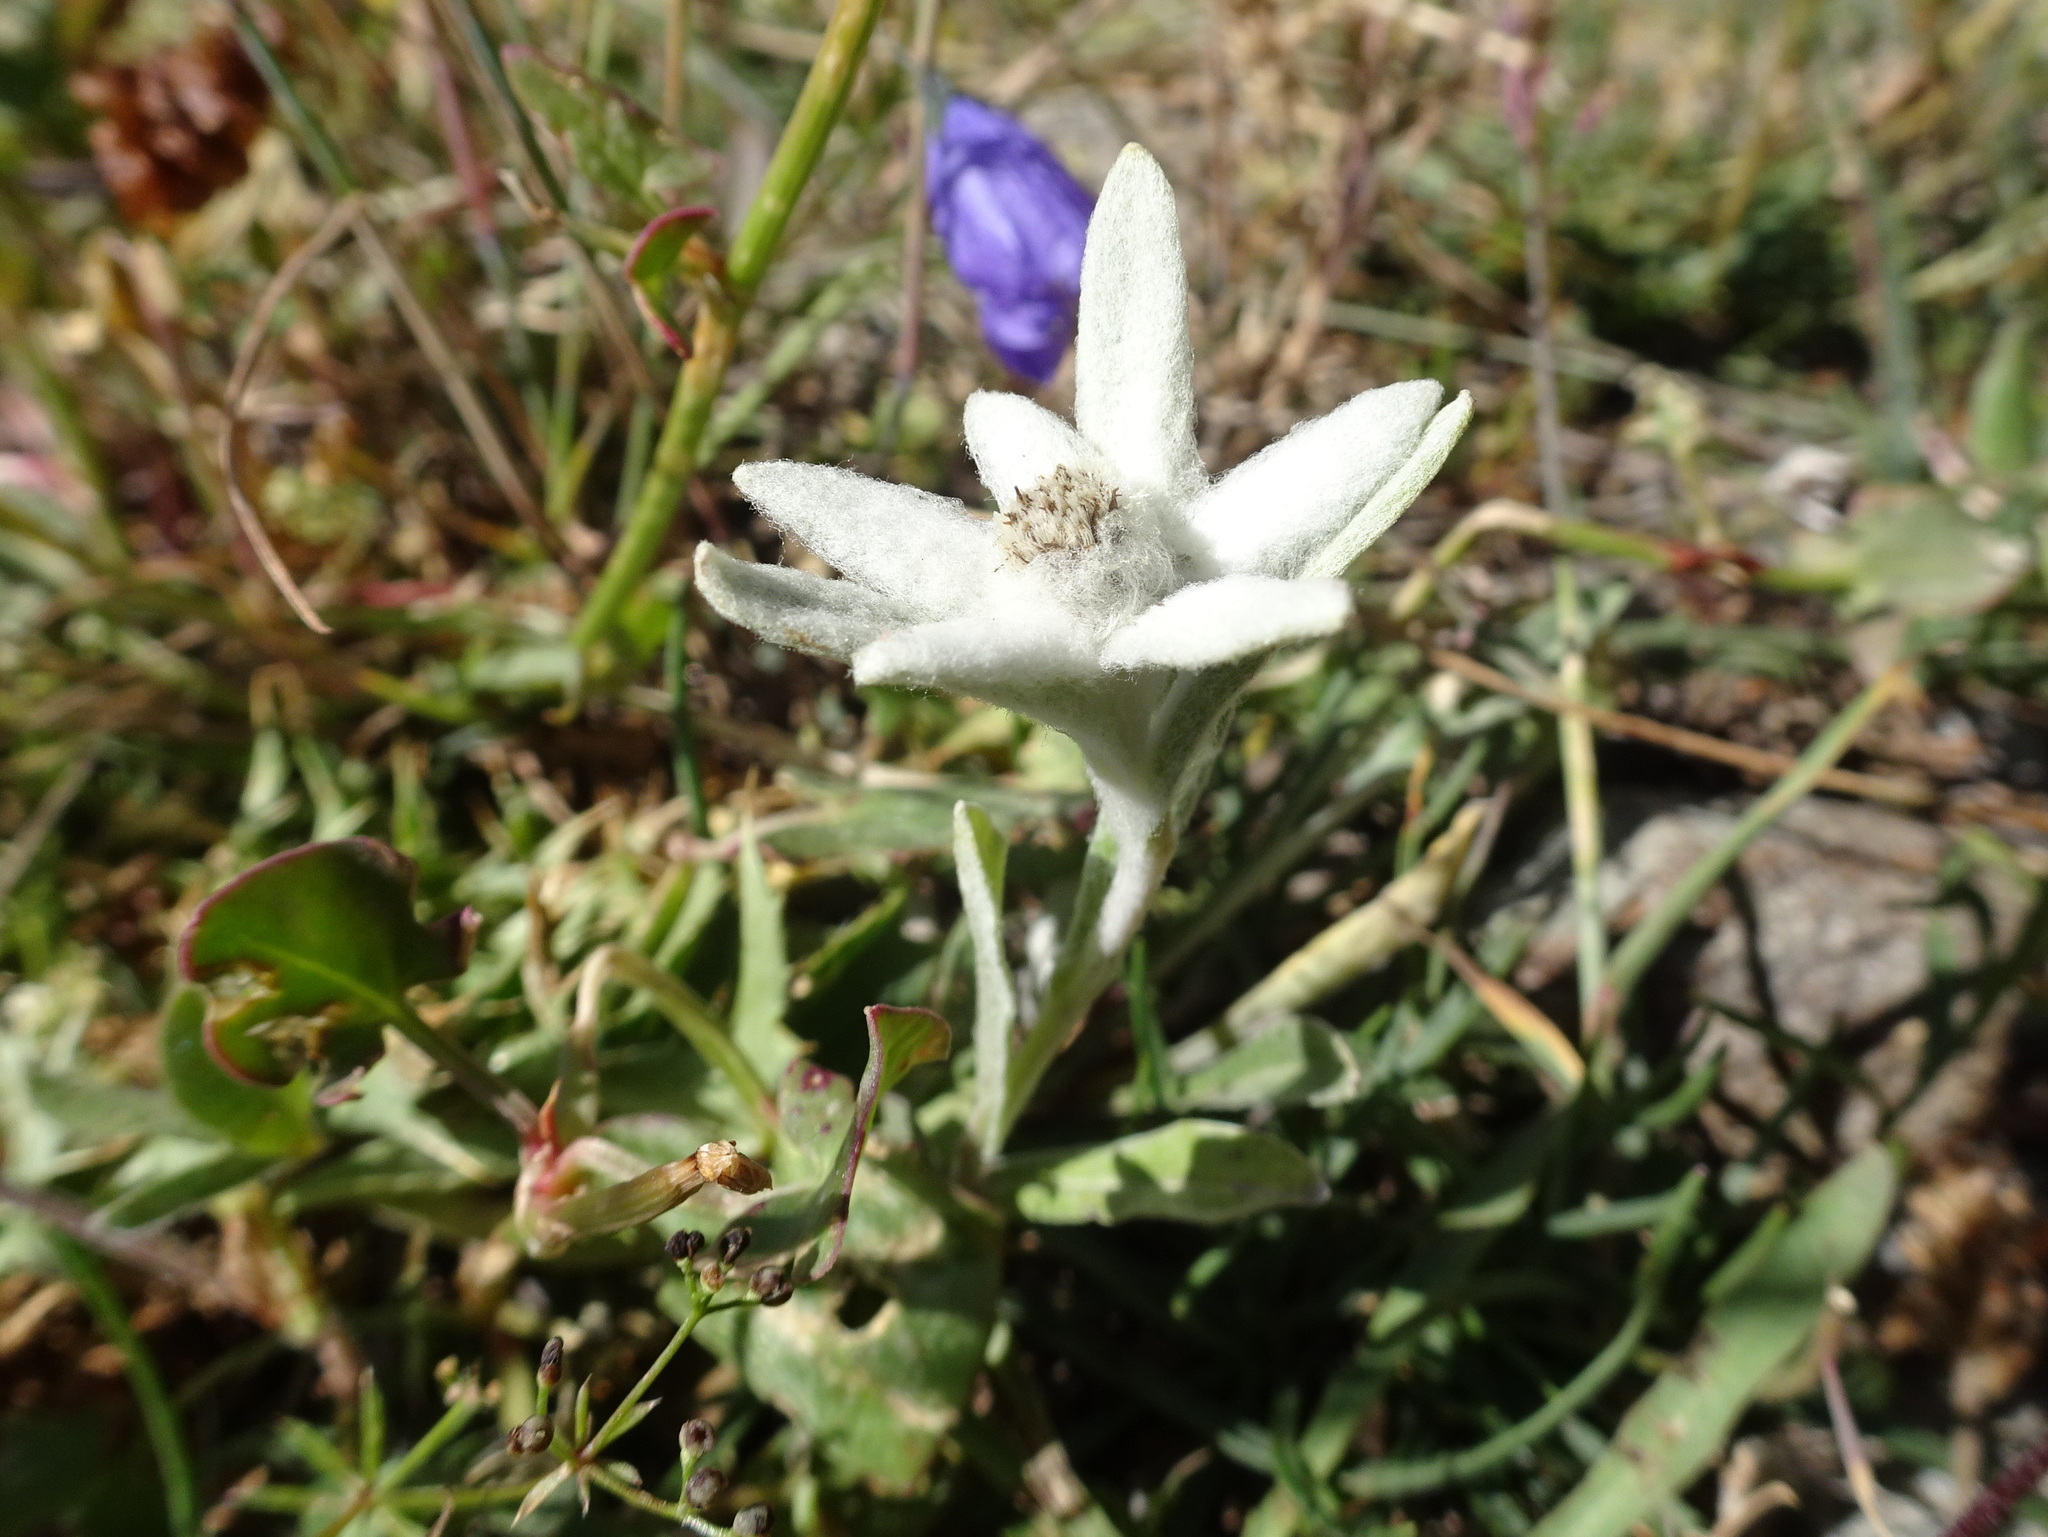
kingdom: Plantae
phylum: Tracheophyta
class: Magnoliopsida
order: Asterales
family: Asteraceae
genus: Leontopodium
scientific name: Leontopodium nivale
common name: Edelweiss
